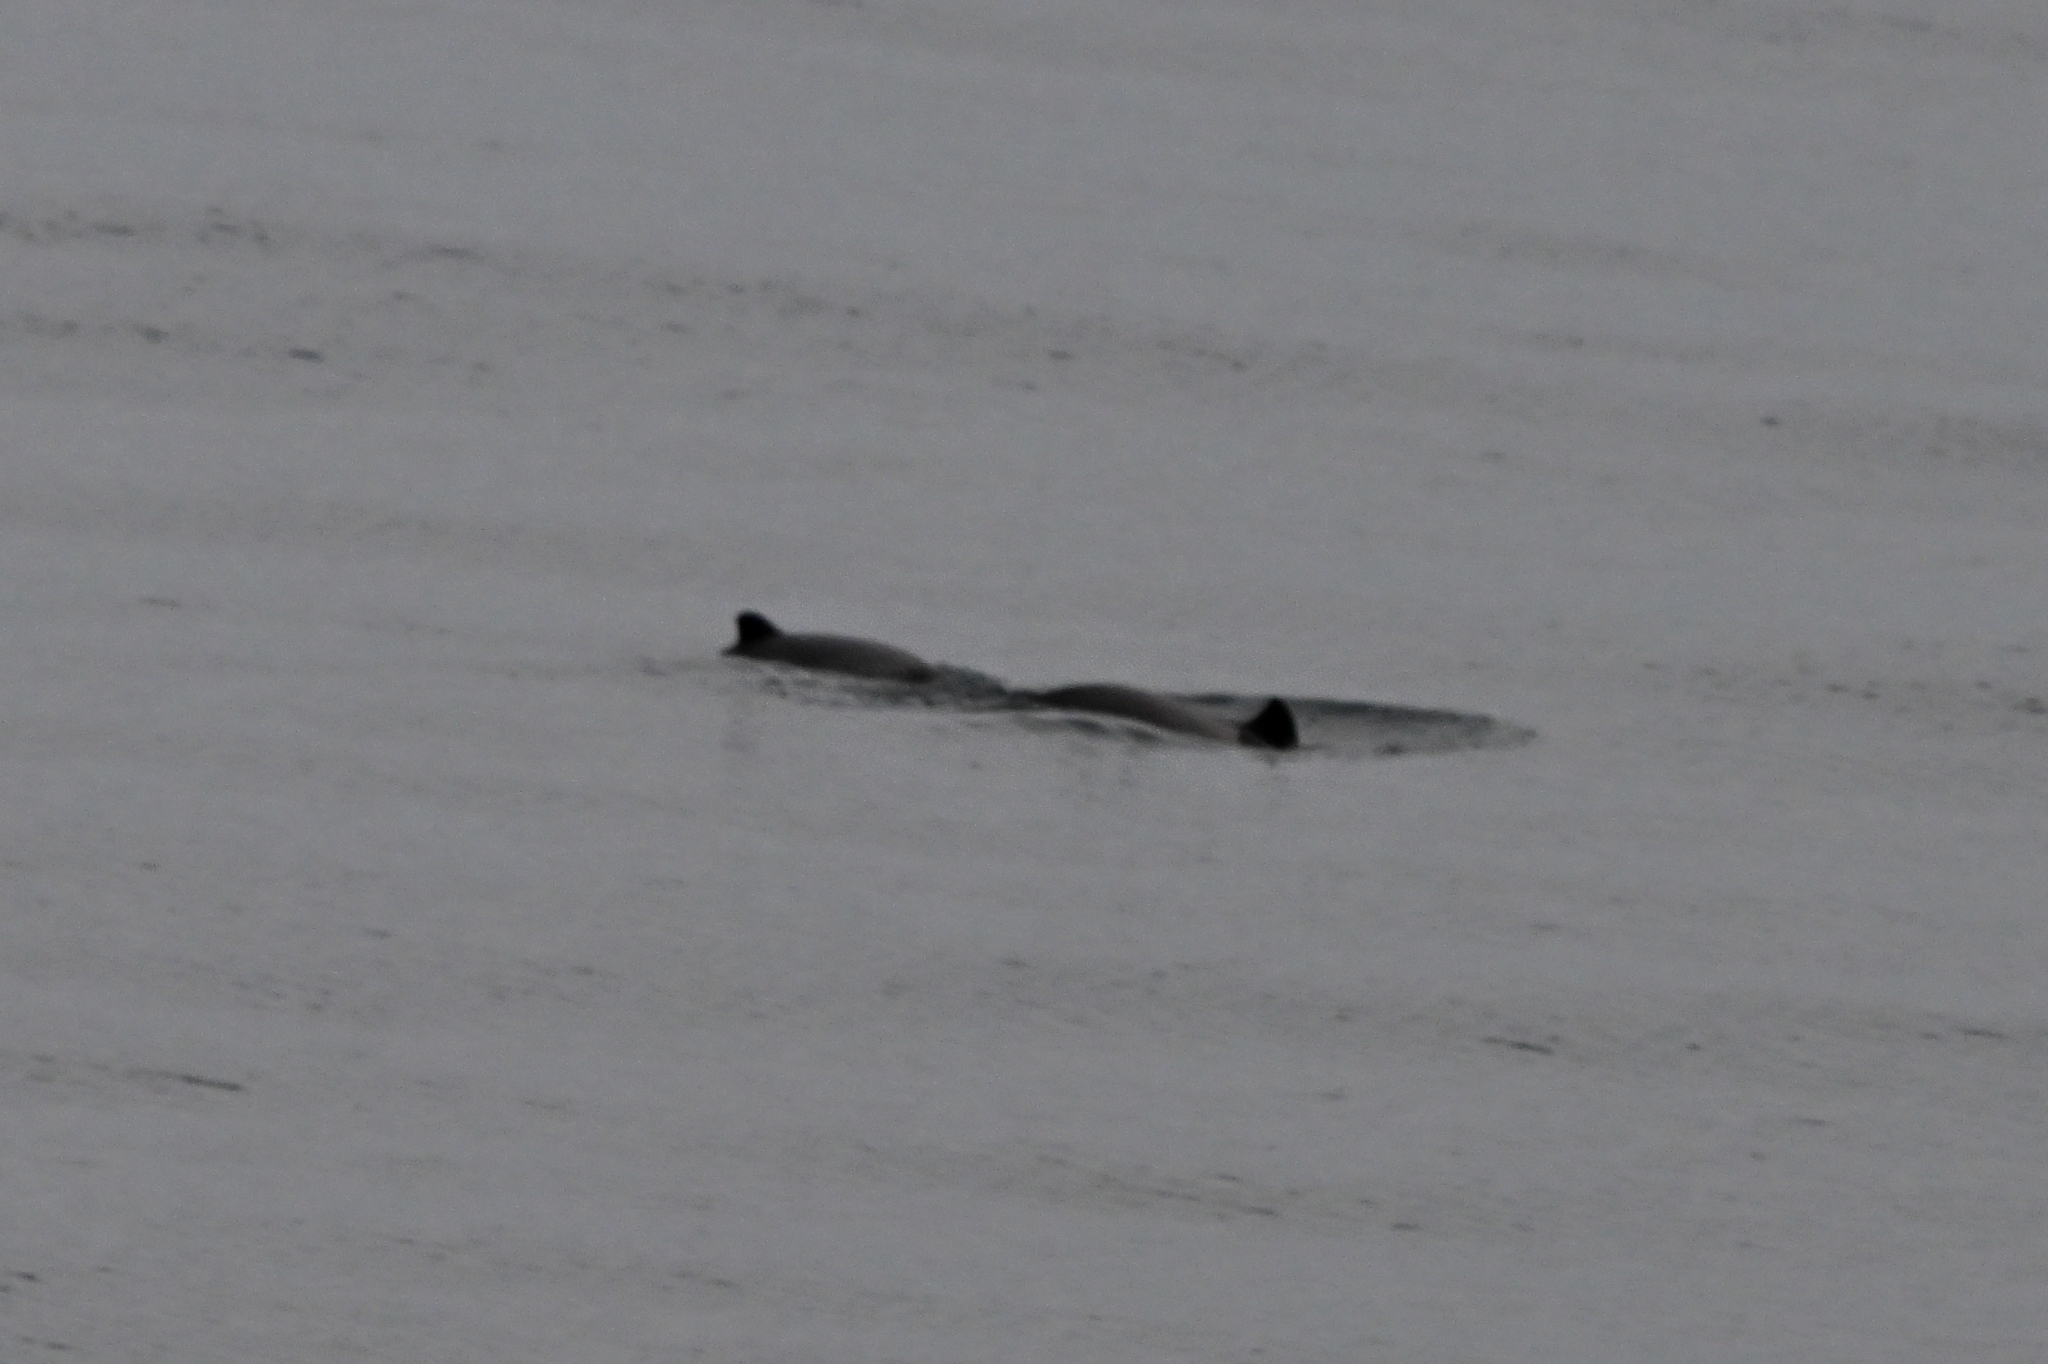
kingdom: Animalia
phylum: Chordata
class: Mammalia
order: Cetacea
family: Phocoenidae
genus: Phocoena
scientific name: Phocoena phocoena
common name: Harbor porpoise
